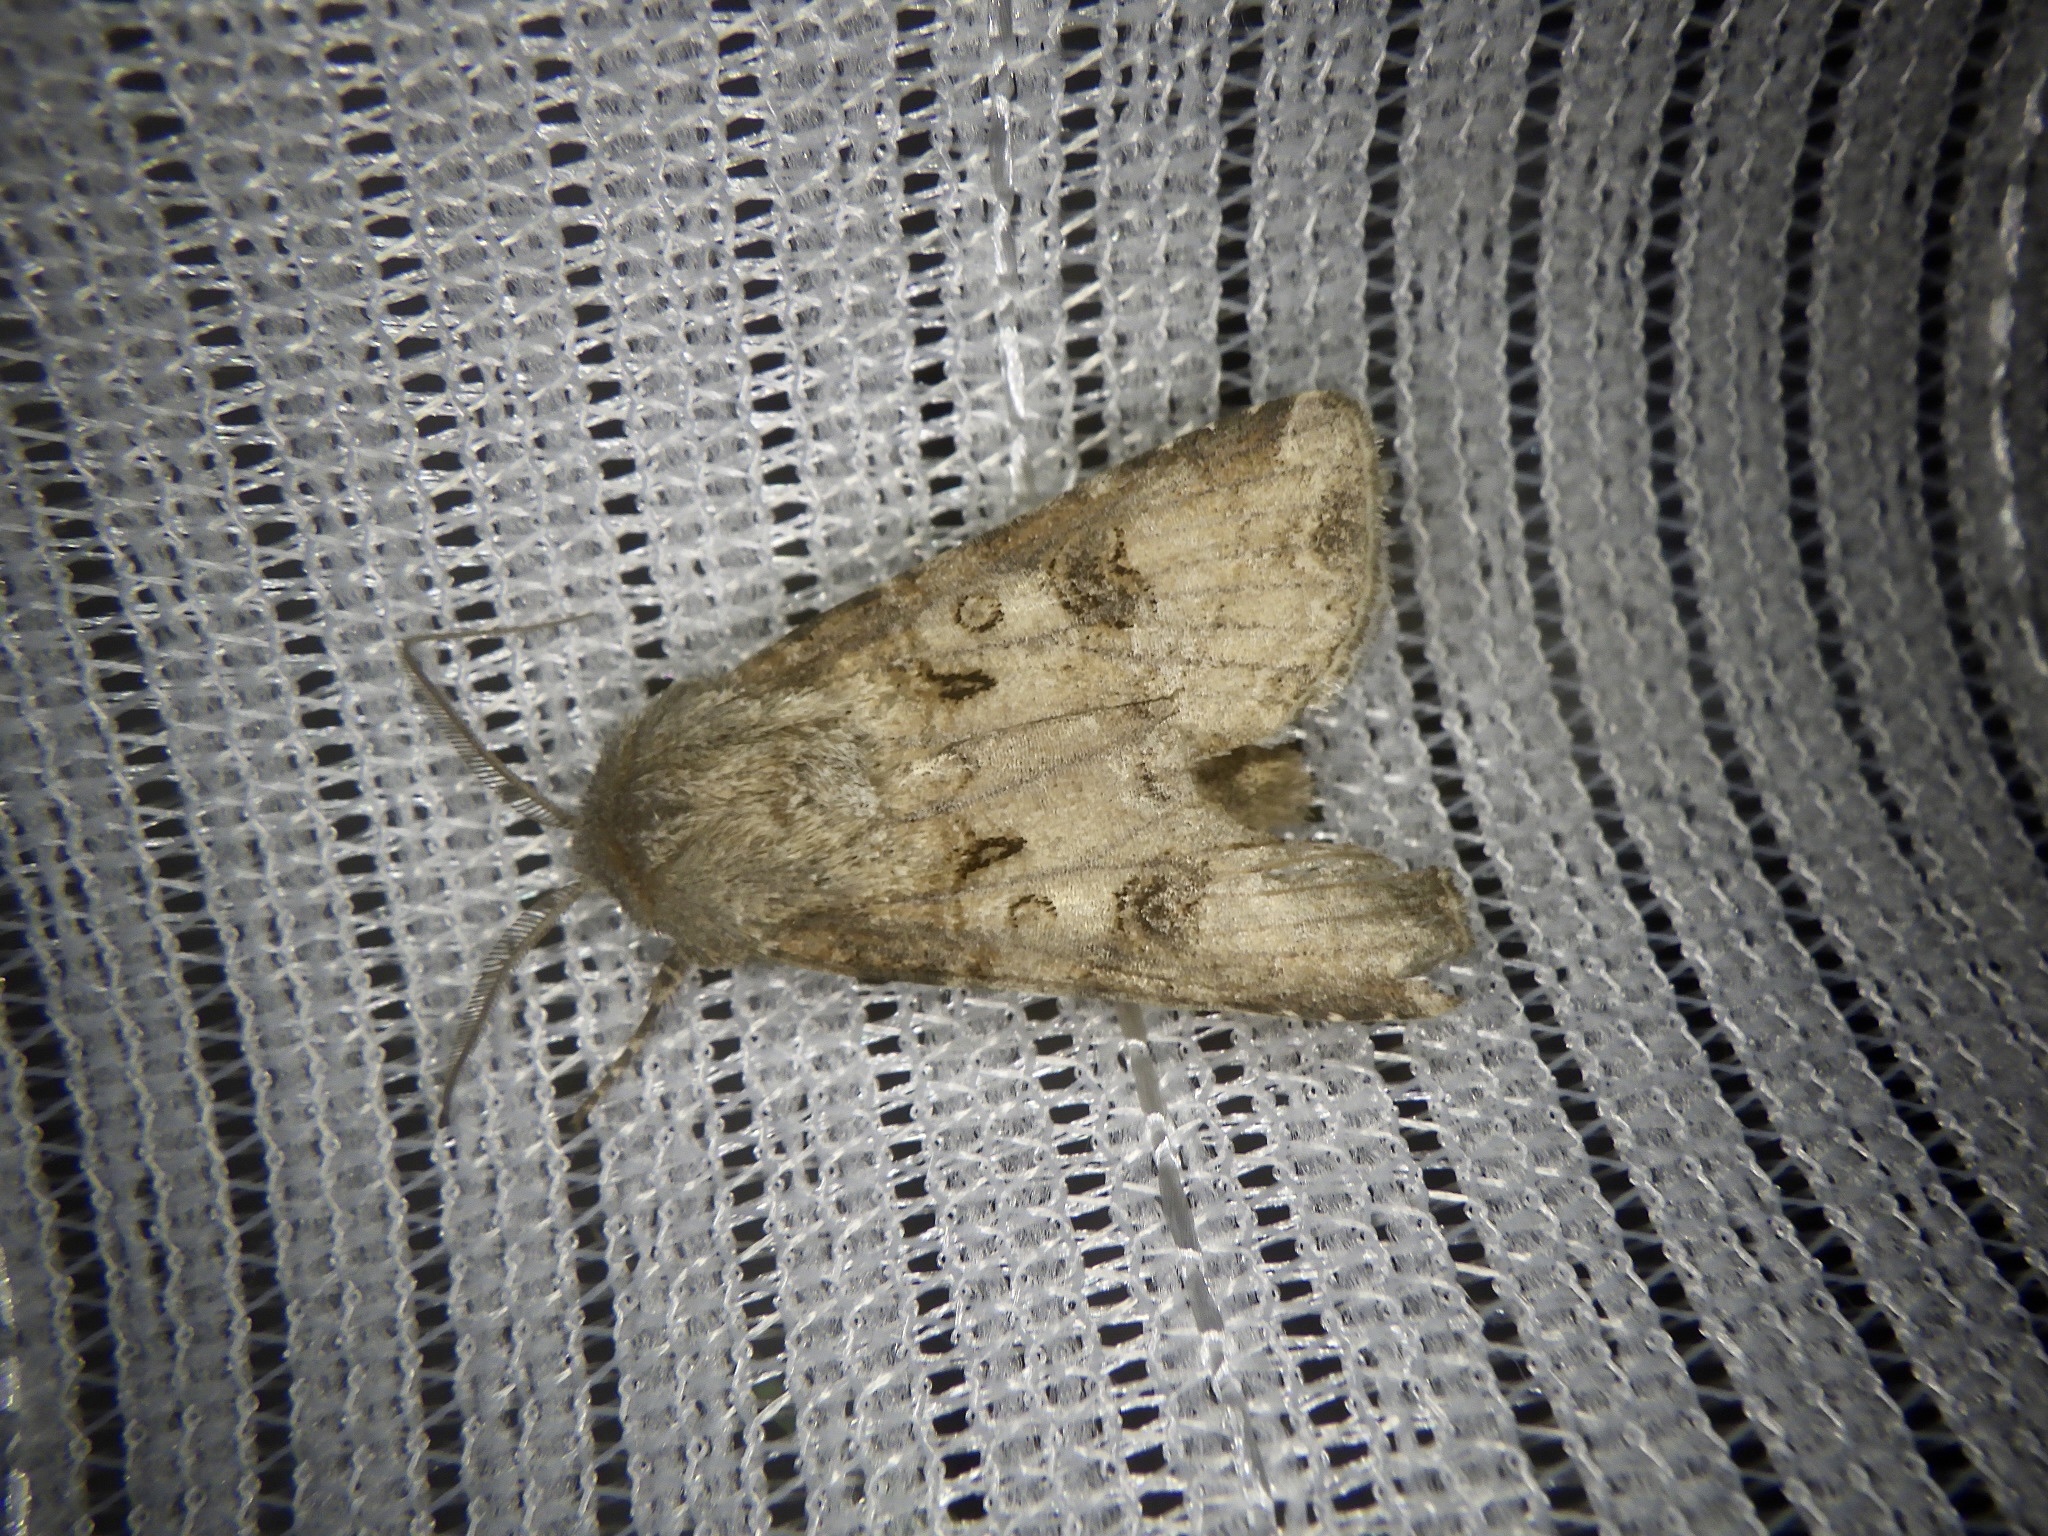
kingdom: Animalia
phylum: Arthropoda
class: Insecta
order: Lepidoptera
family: Noctuidae
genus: Agrotis
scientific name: Agrotis segetum
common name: Turnip moth
